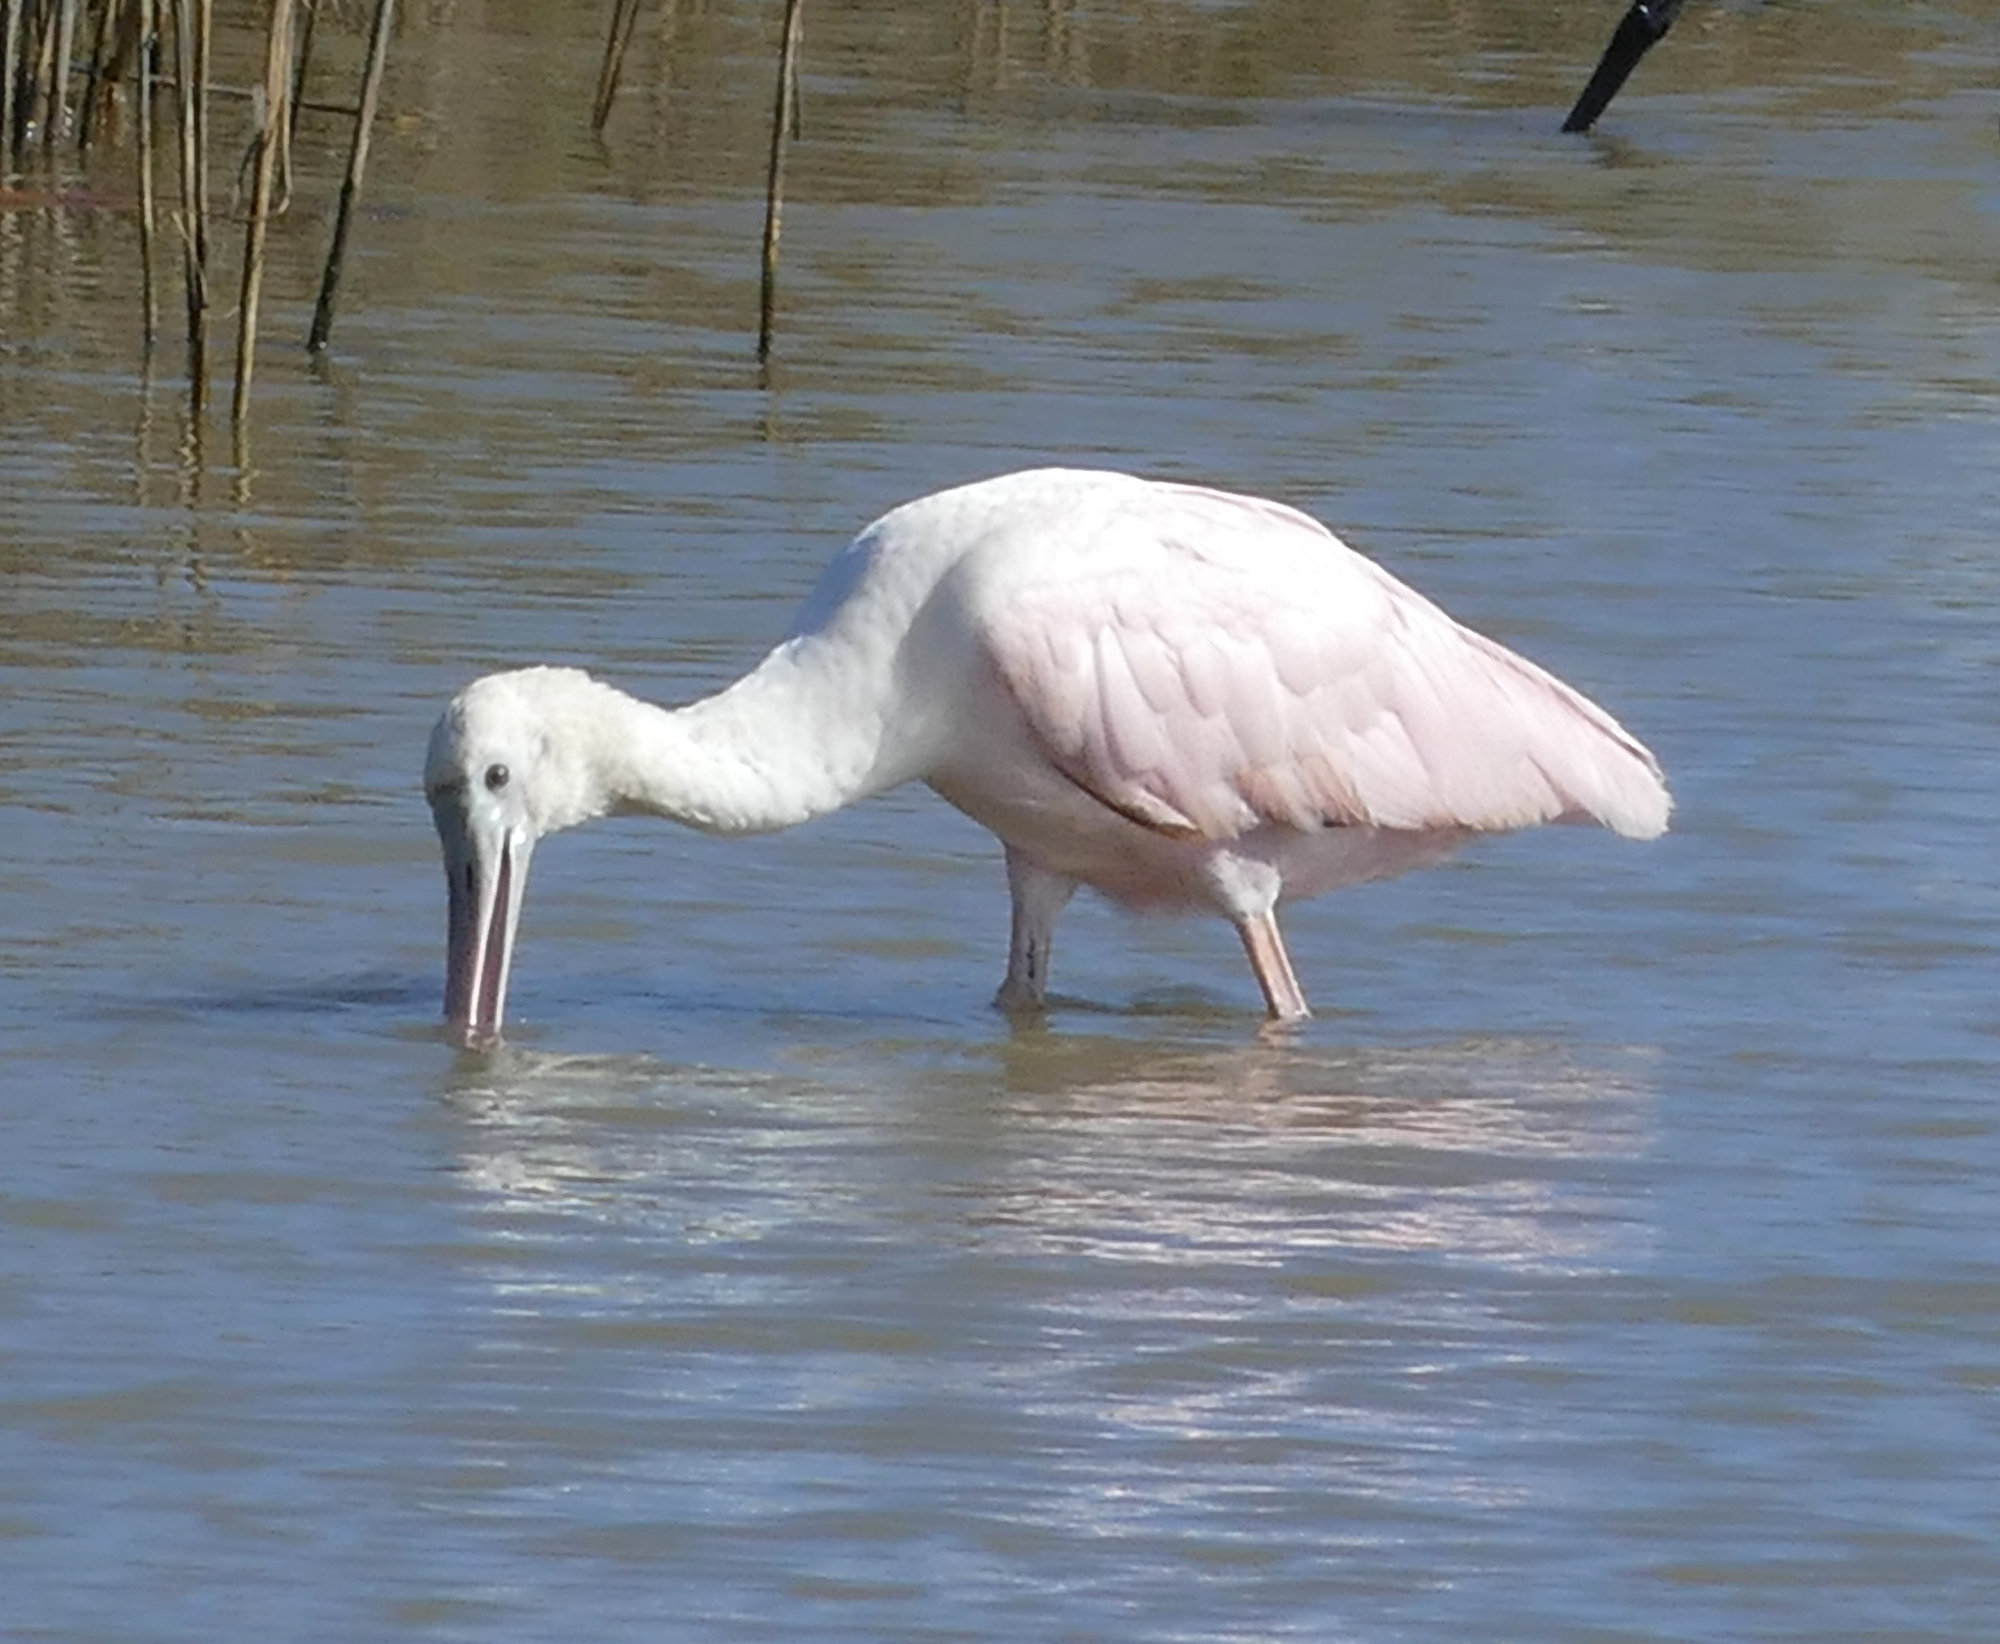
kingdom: Animalia
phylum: Chordata
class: Aves
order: Pelecaniformes
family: Threskiornithidae
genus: Platalea
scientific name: Platalea ajaja
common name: Roseate spoonbill
